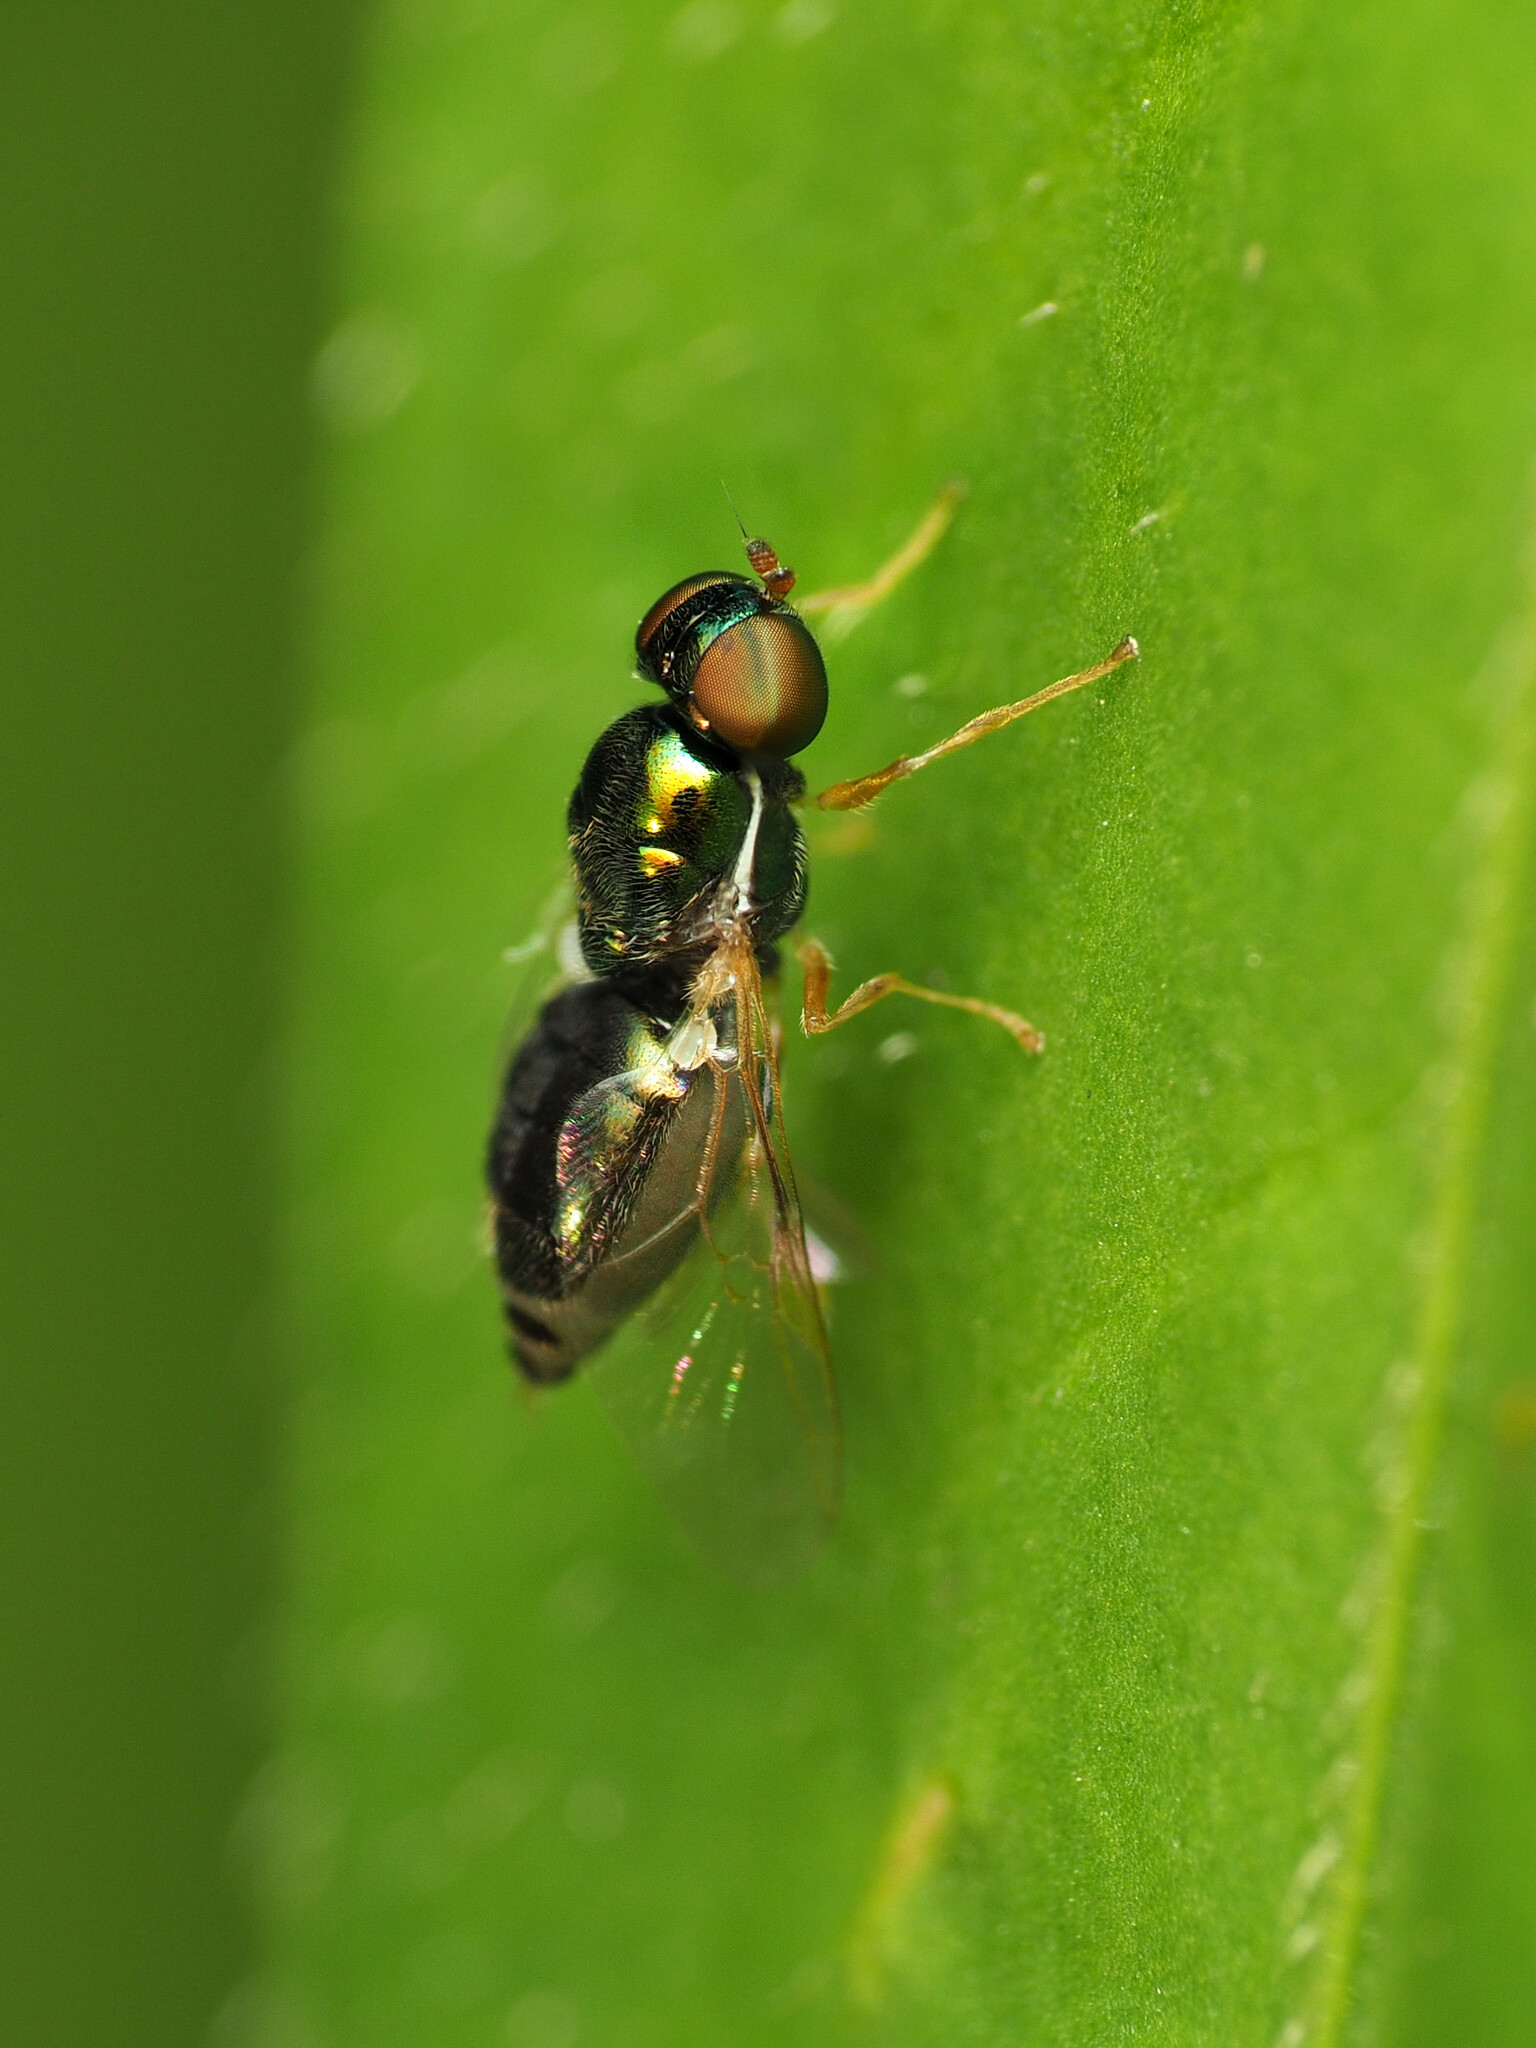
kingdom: Animalia
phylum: Arthropoda
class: Insecta
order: Diptera
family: Stratiomyidae
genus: Microchrysa
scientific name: Microchrysa flaviventris
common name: Soldier fly
